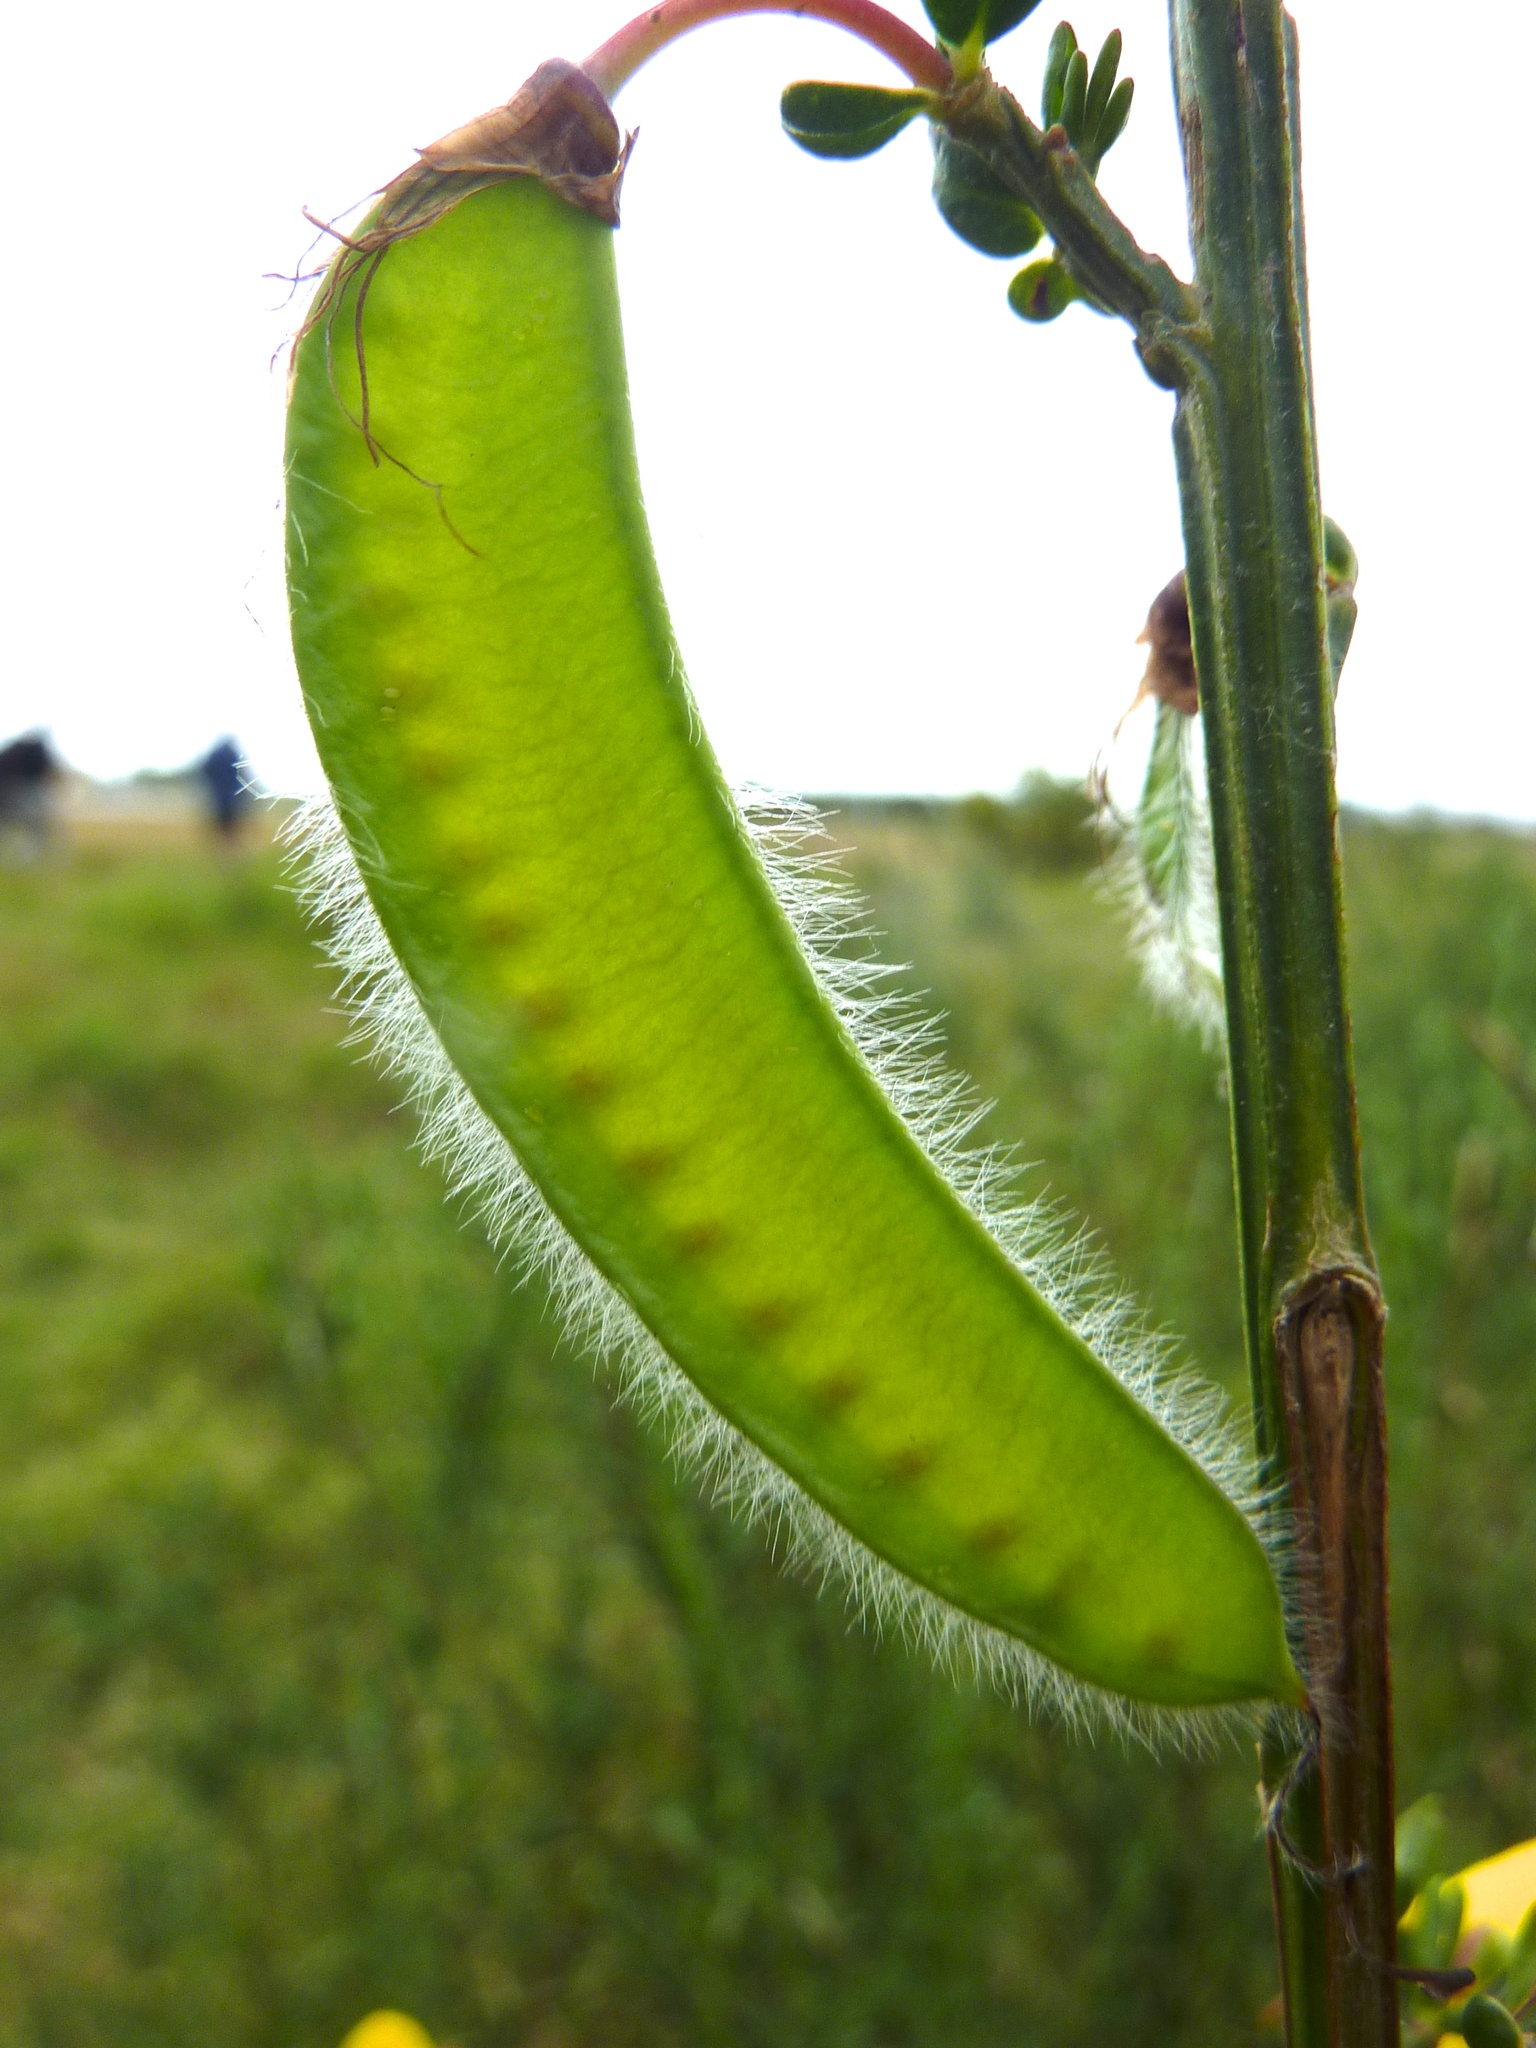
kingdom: Plantae
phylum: Tracheophyta
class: Magnoliopsida
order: Fabales
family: Fabaceae
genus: Cytisus
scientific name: Cytisus scoparius
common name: Scotch broom
